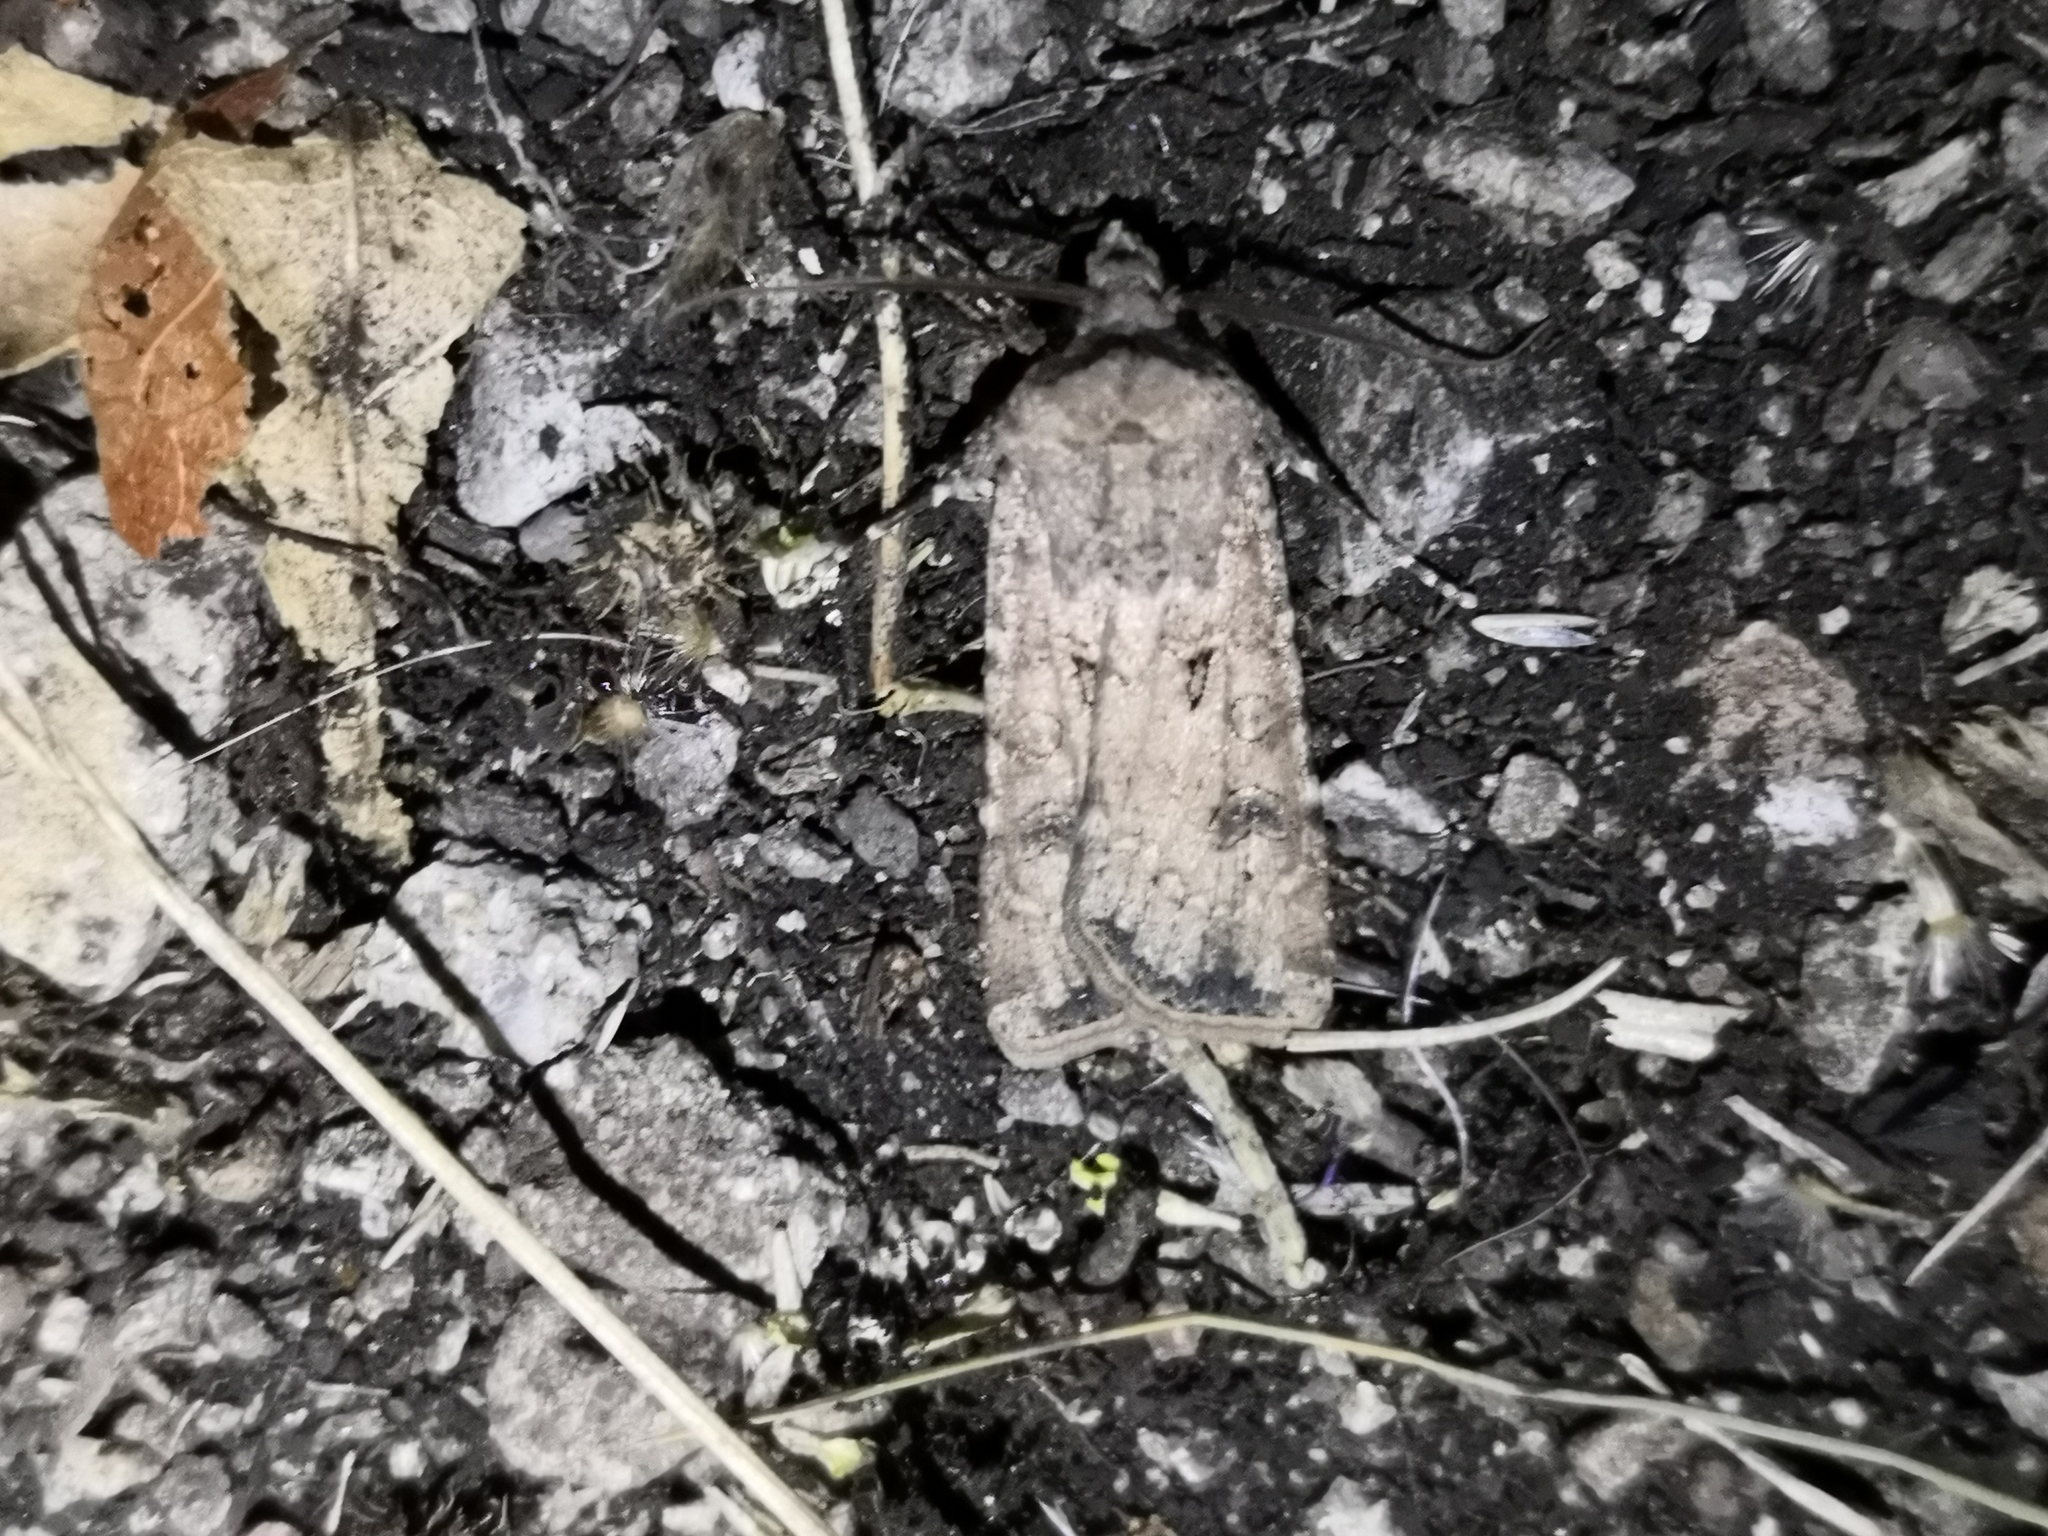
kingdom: Animalia
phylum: Arthropoda
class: Insecta
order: Lepidoptera
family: Noctuidae
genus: Agrotis
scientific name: Agrotis segetum
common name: Turnip moth
